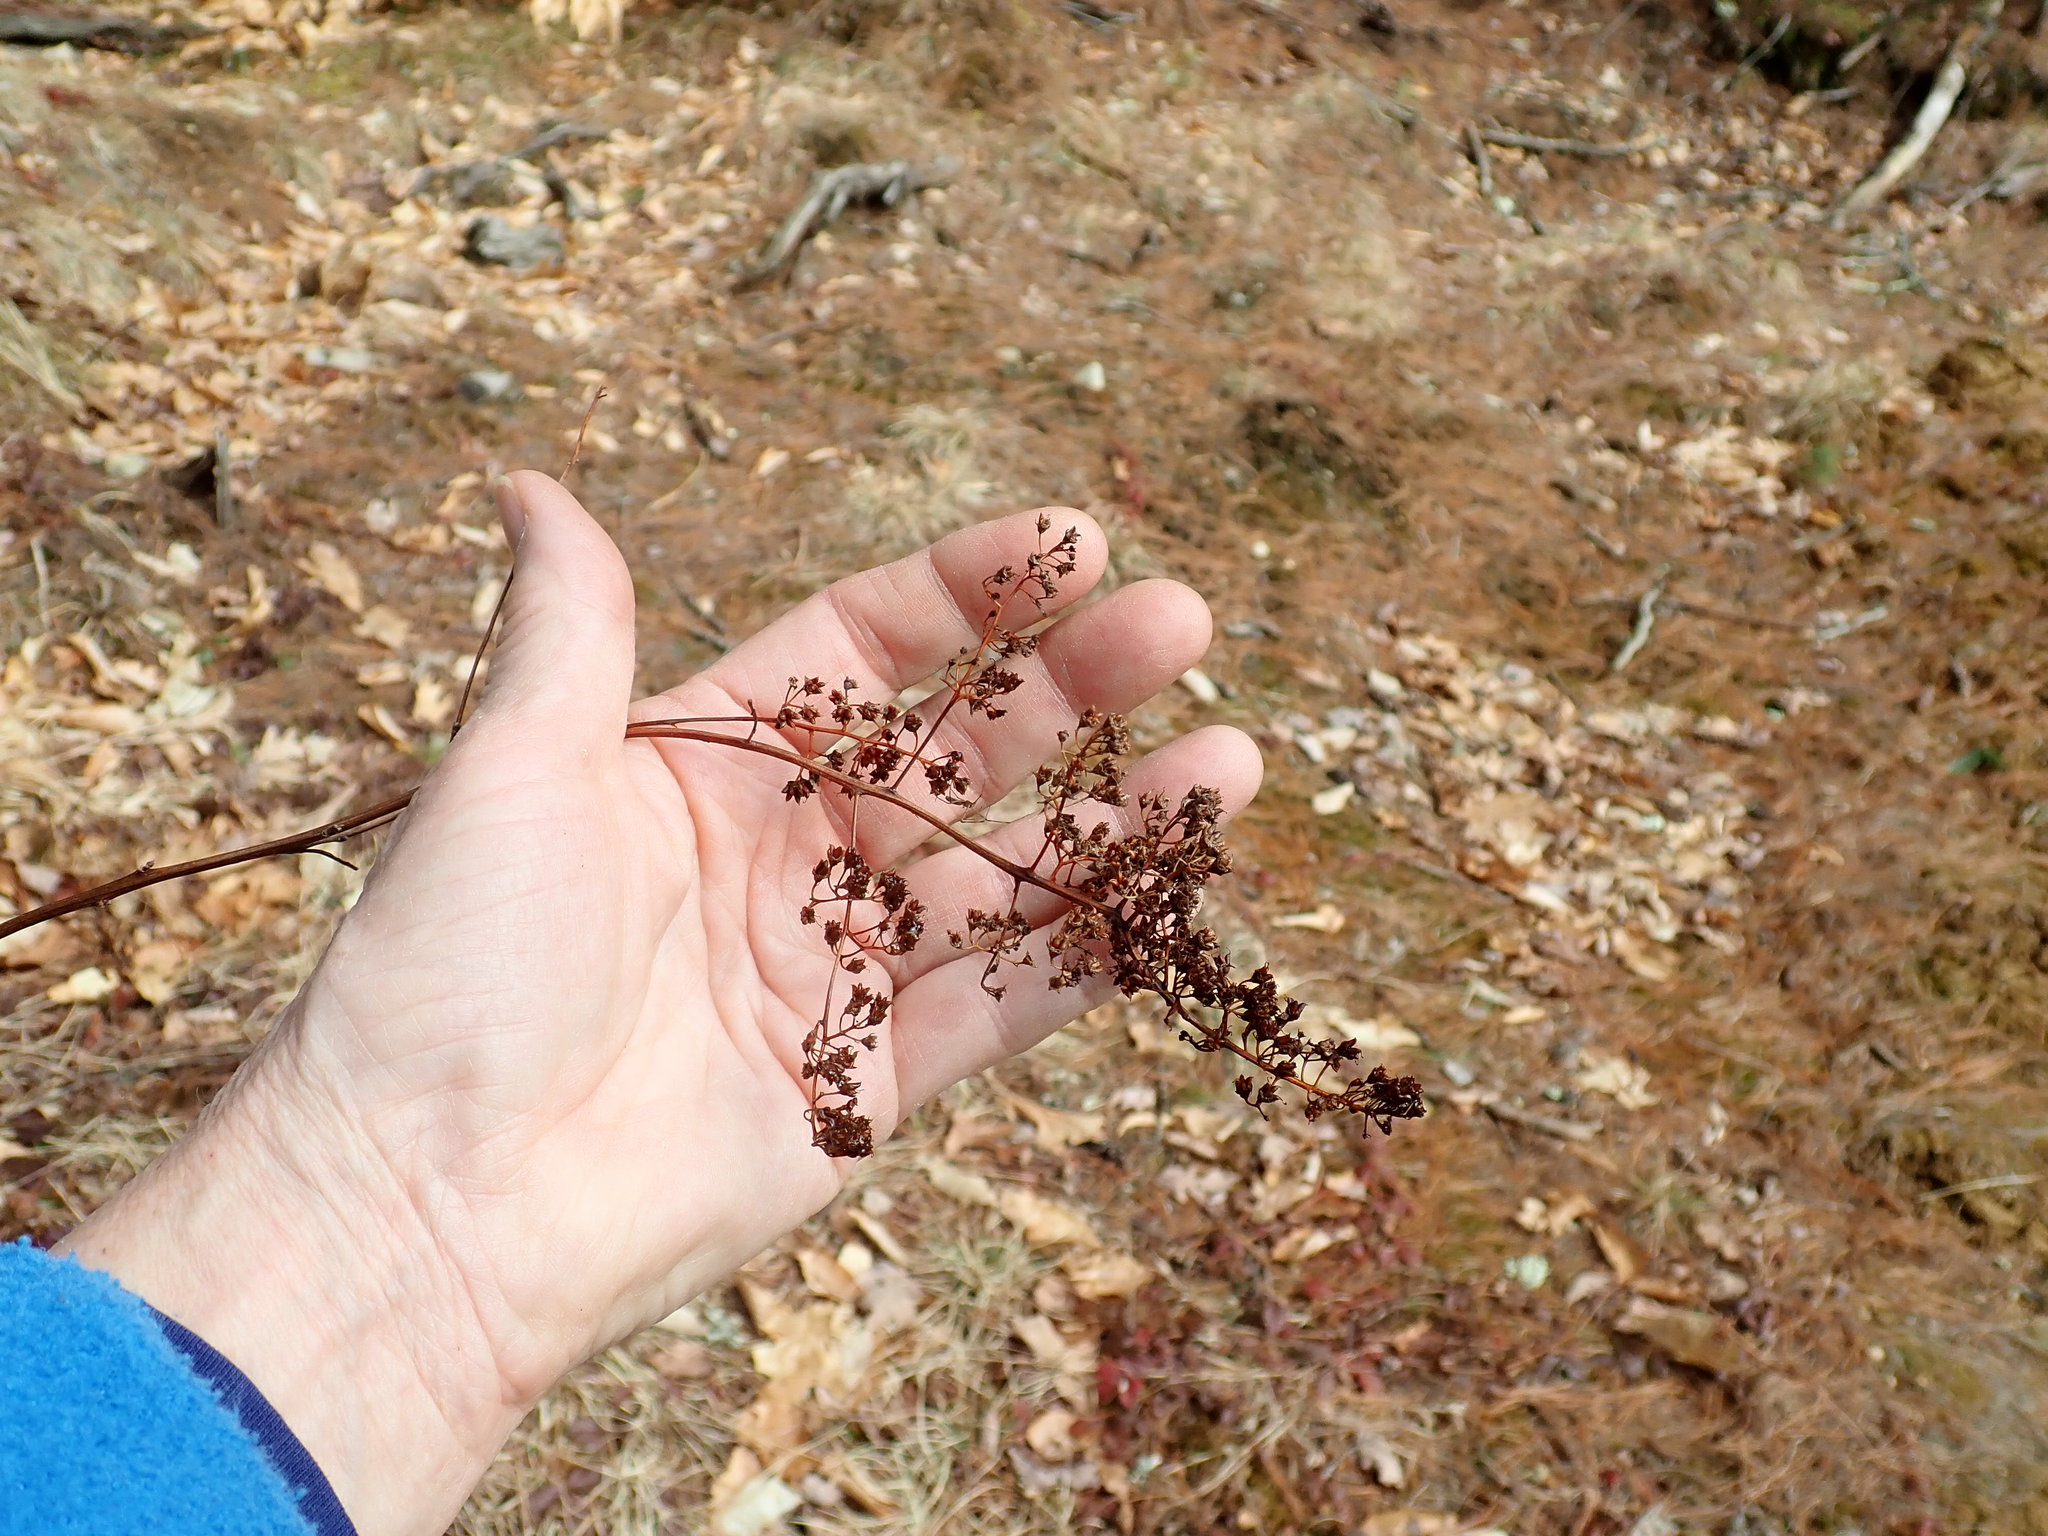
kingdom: Plantae
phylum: Tracheophyta
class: Magnoliopsida
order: Rosales
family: Rosaceae
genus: Spiraea
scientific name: Spiraea alba
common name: Pale bridewort
